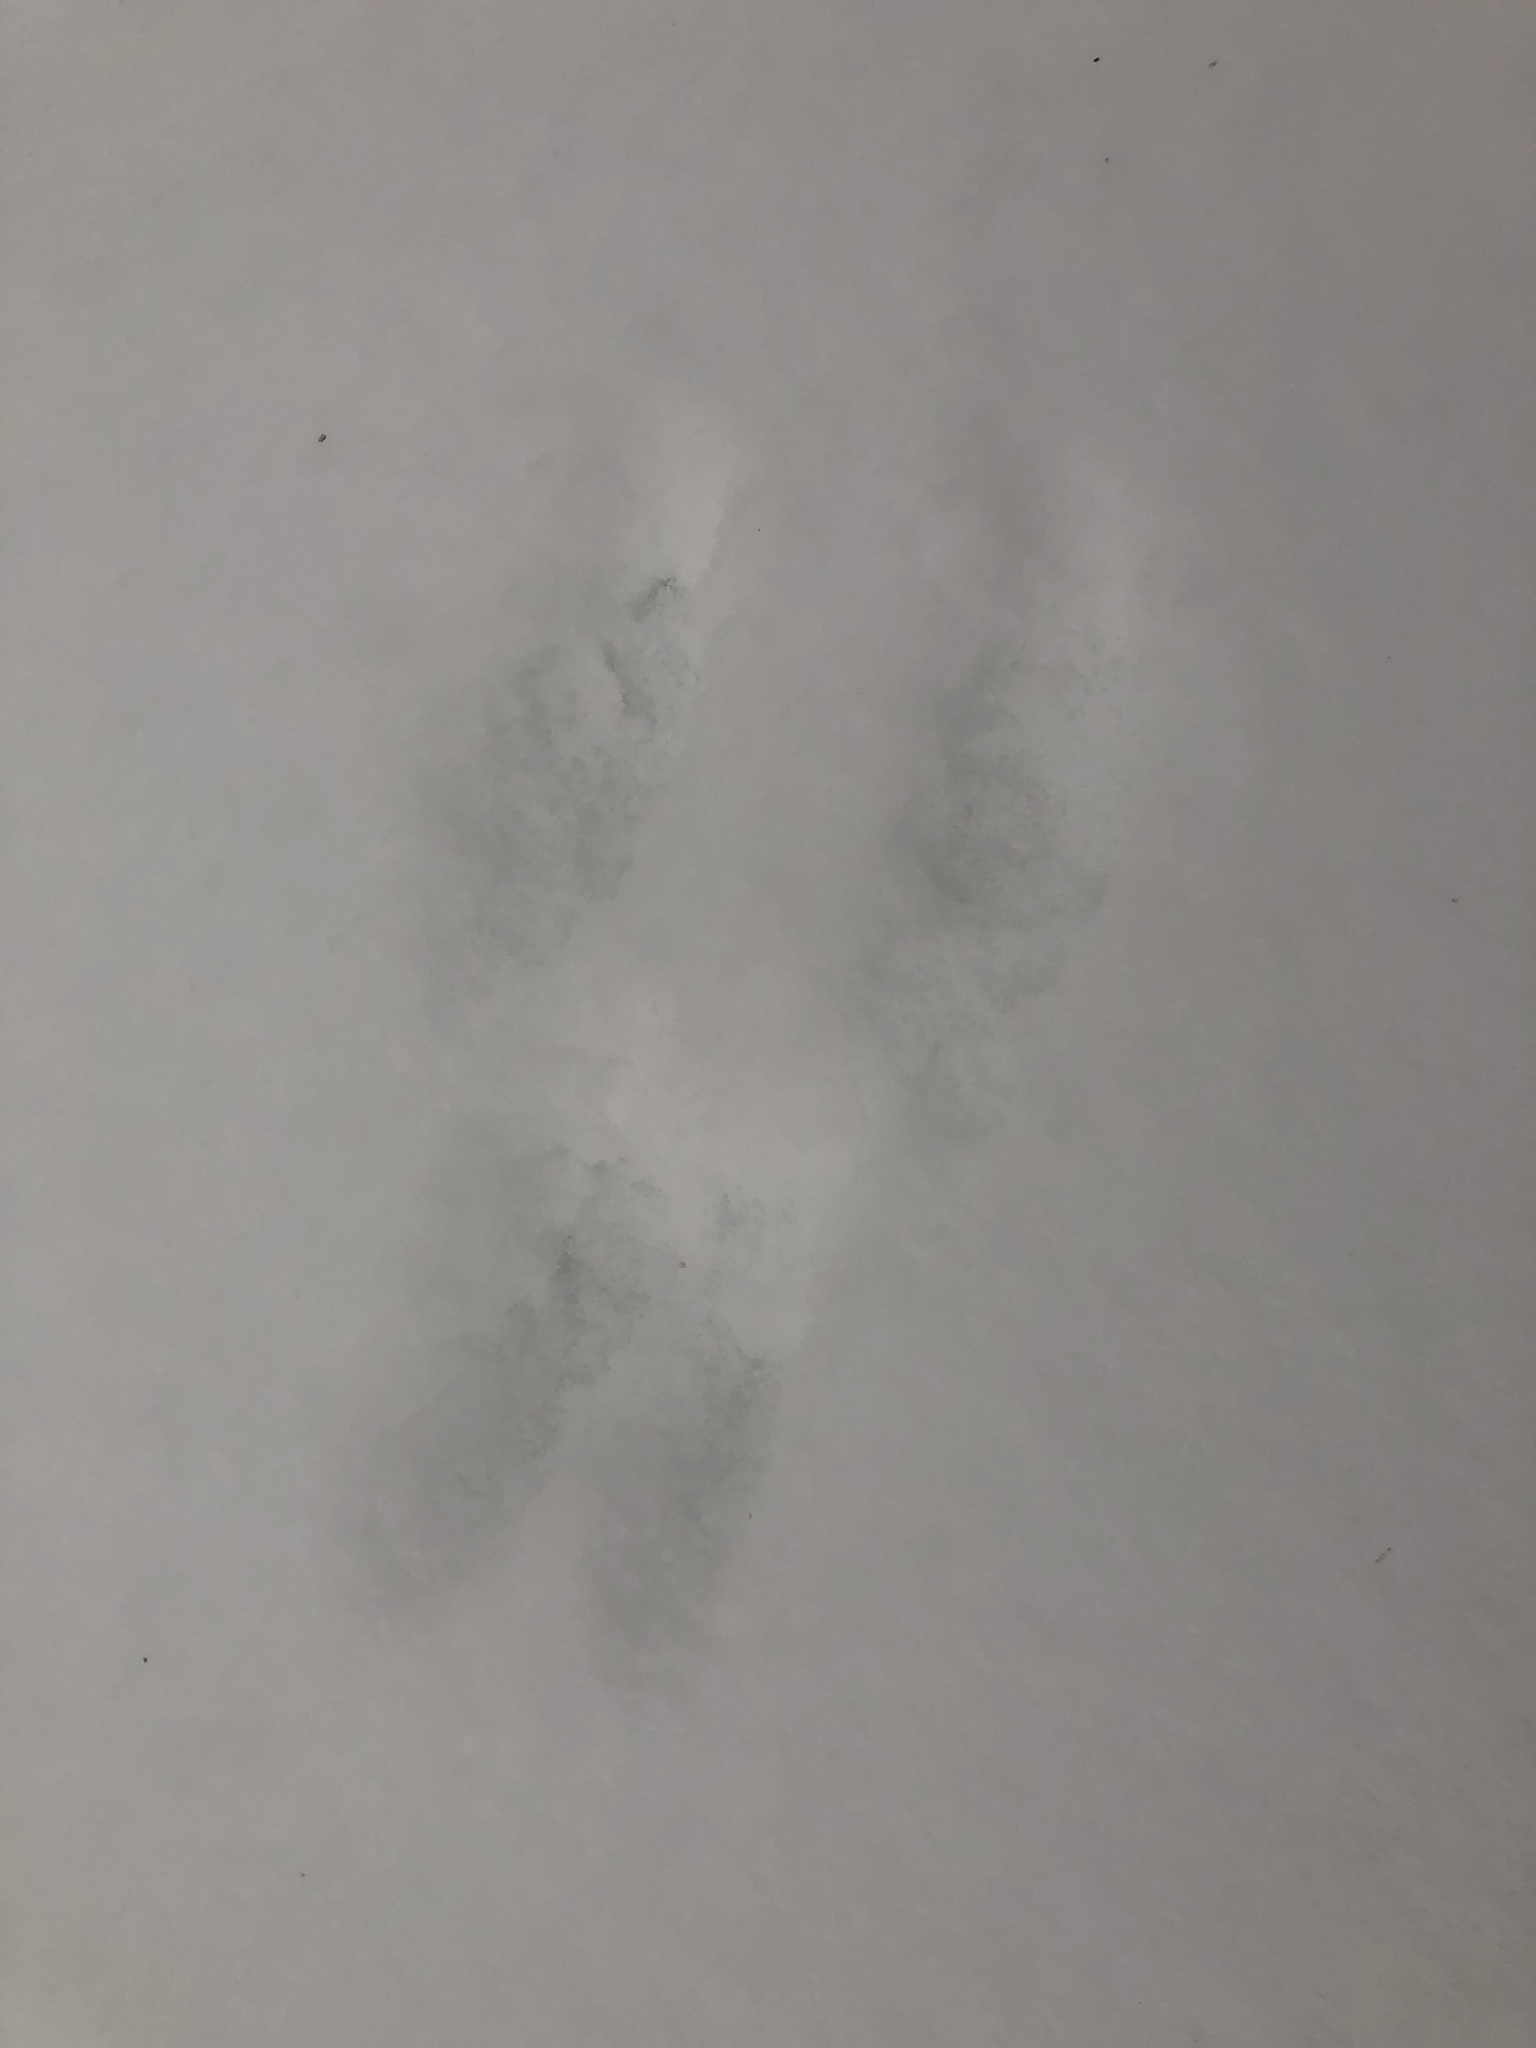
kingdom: Animalia
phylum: Chordata
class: Mammalia
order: Rodentia
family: Sciuridae
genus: Sciurus
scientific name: Sciurus carolinensis
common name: Eastern gray squirrel
